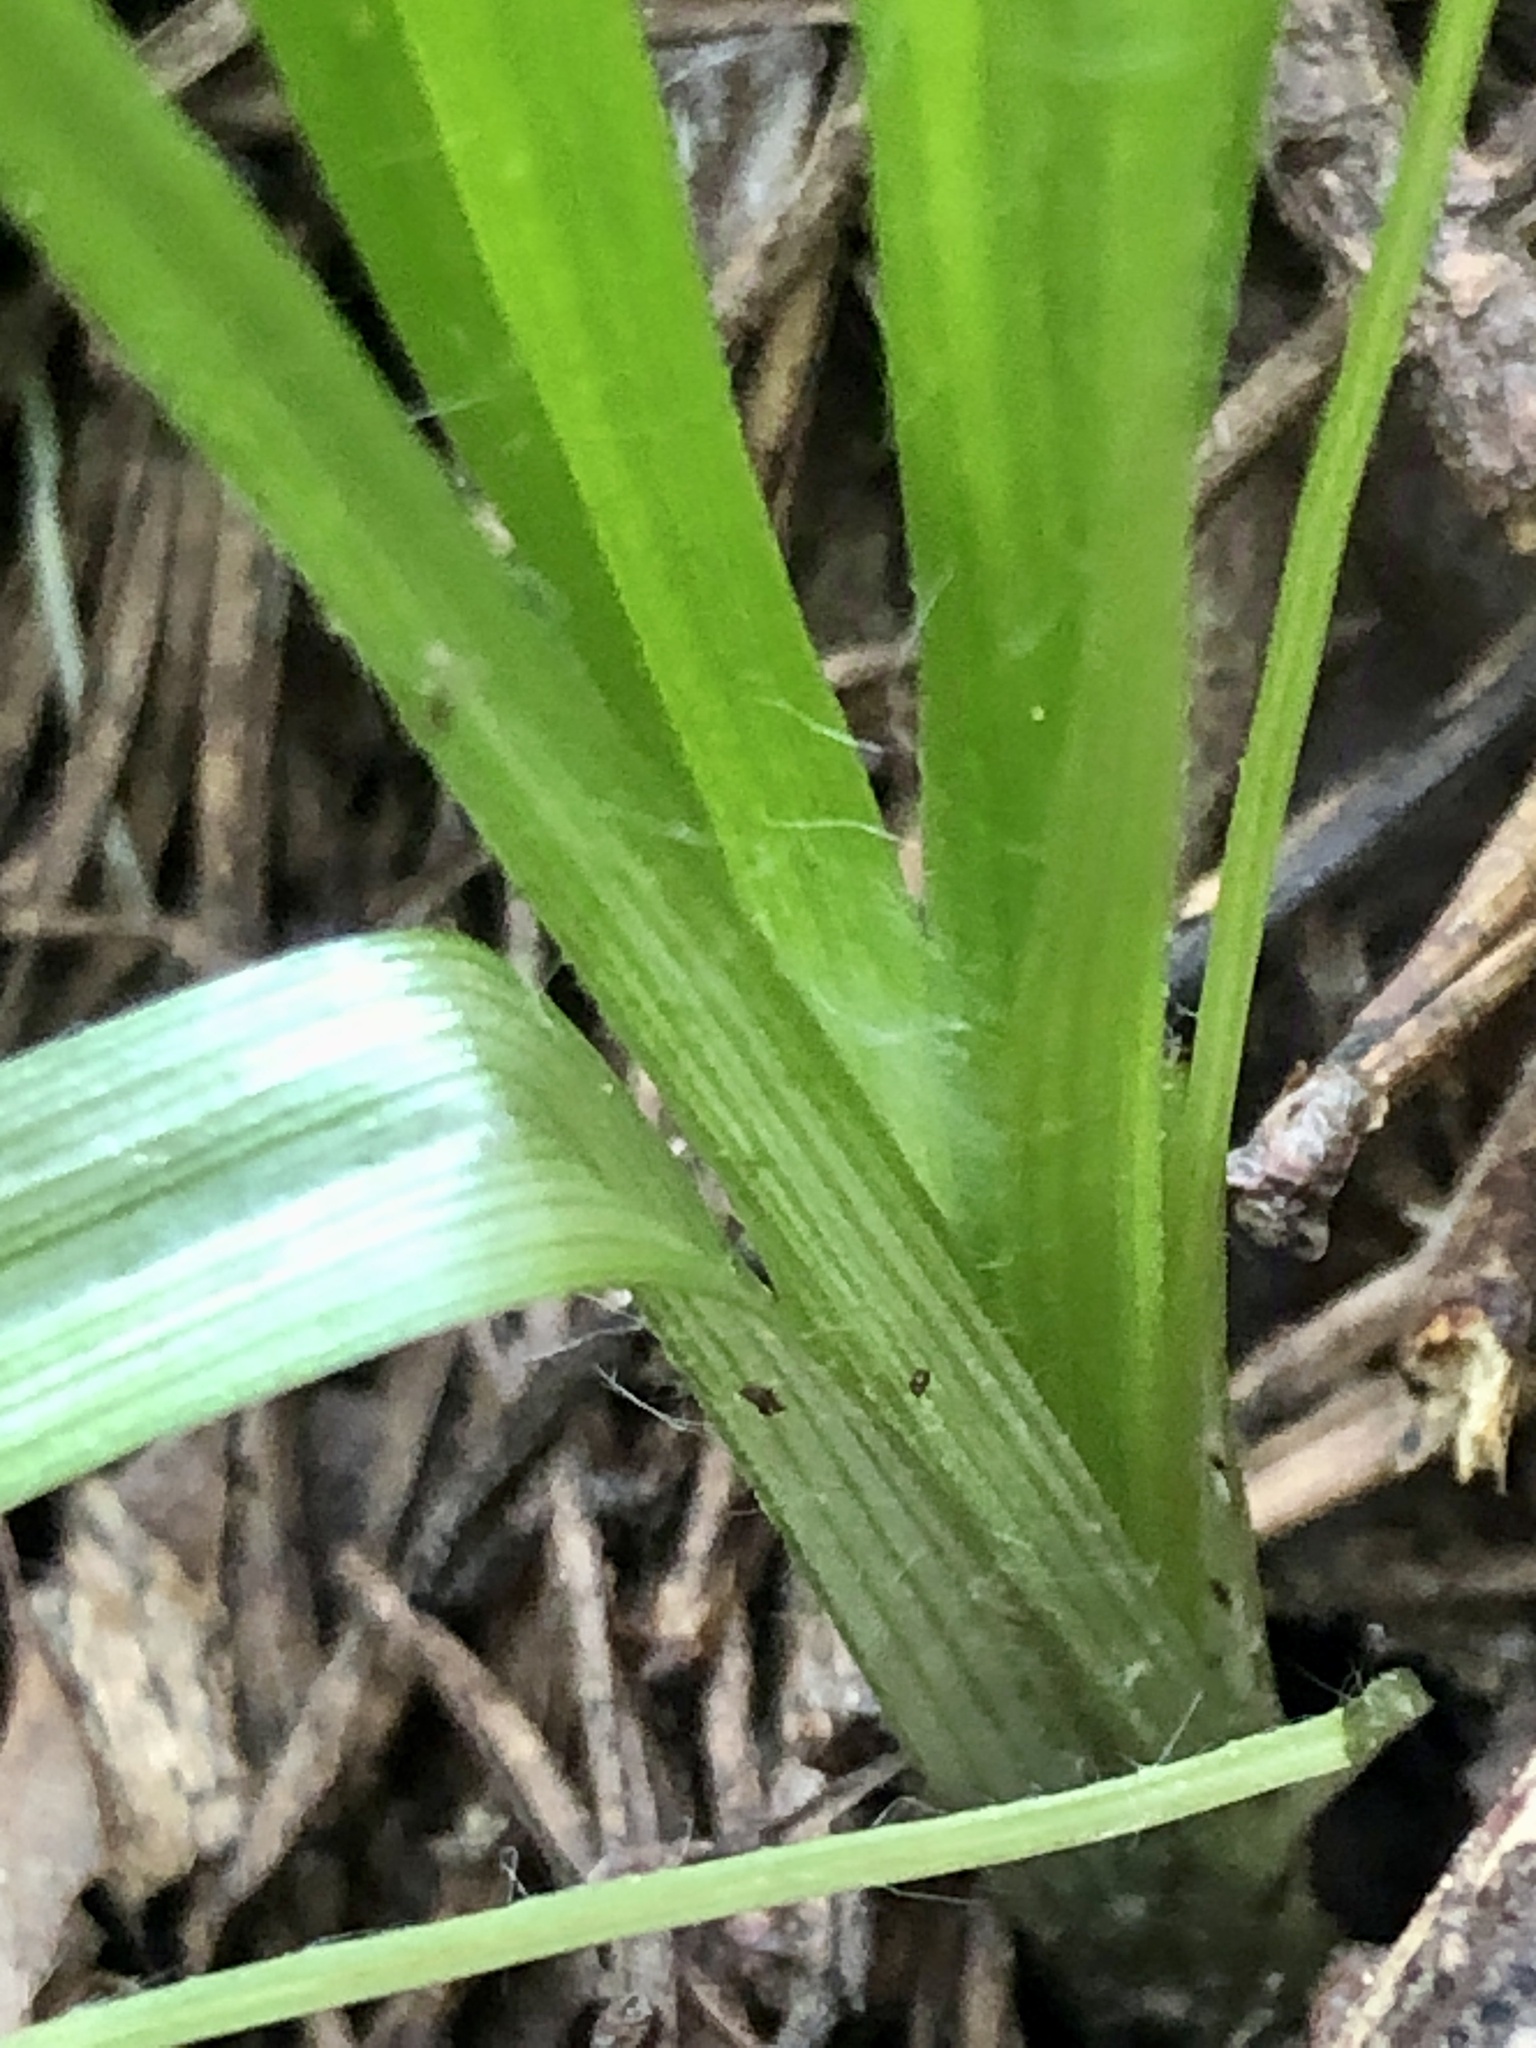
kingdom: Plantae
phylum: Tracheophyta
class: Liliopsida
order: Asparagales
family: Hypoxidaceae
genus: Hypoxis
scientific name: Hypoxis hirsuta
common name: Common goldstar
